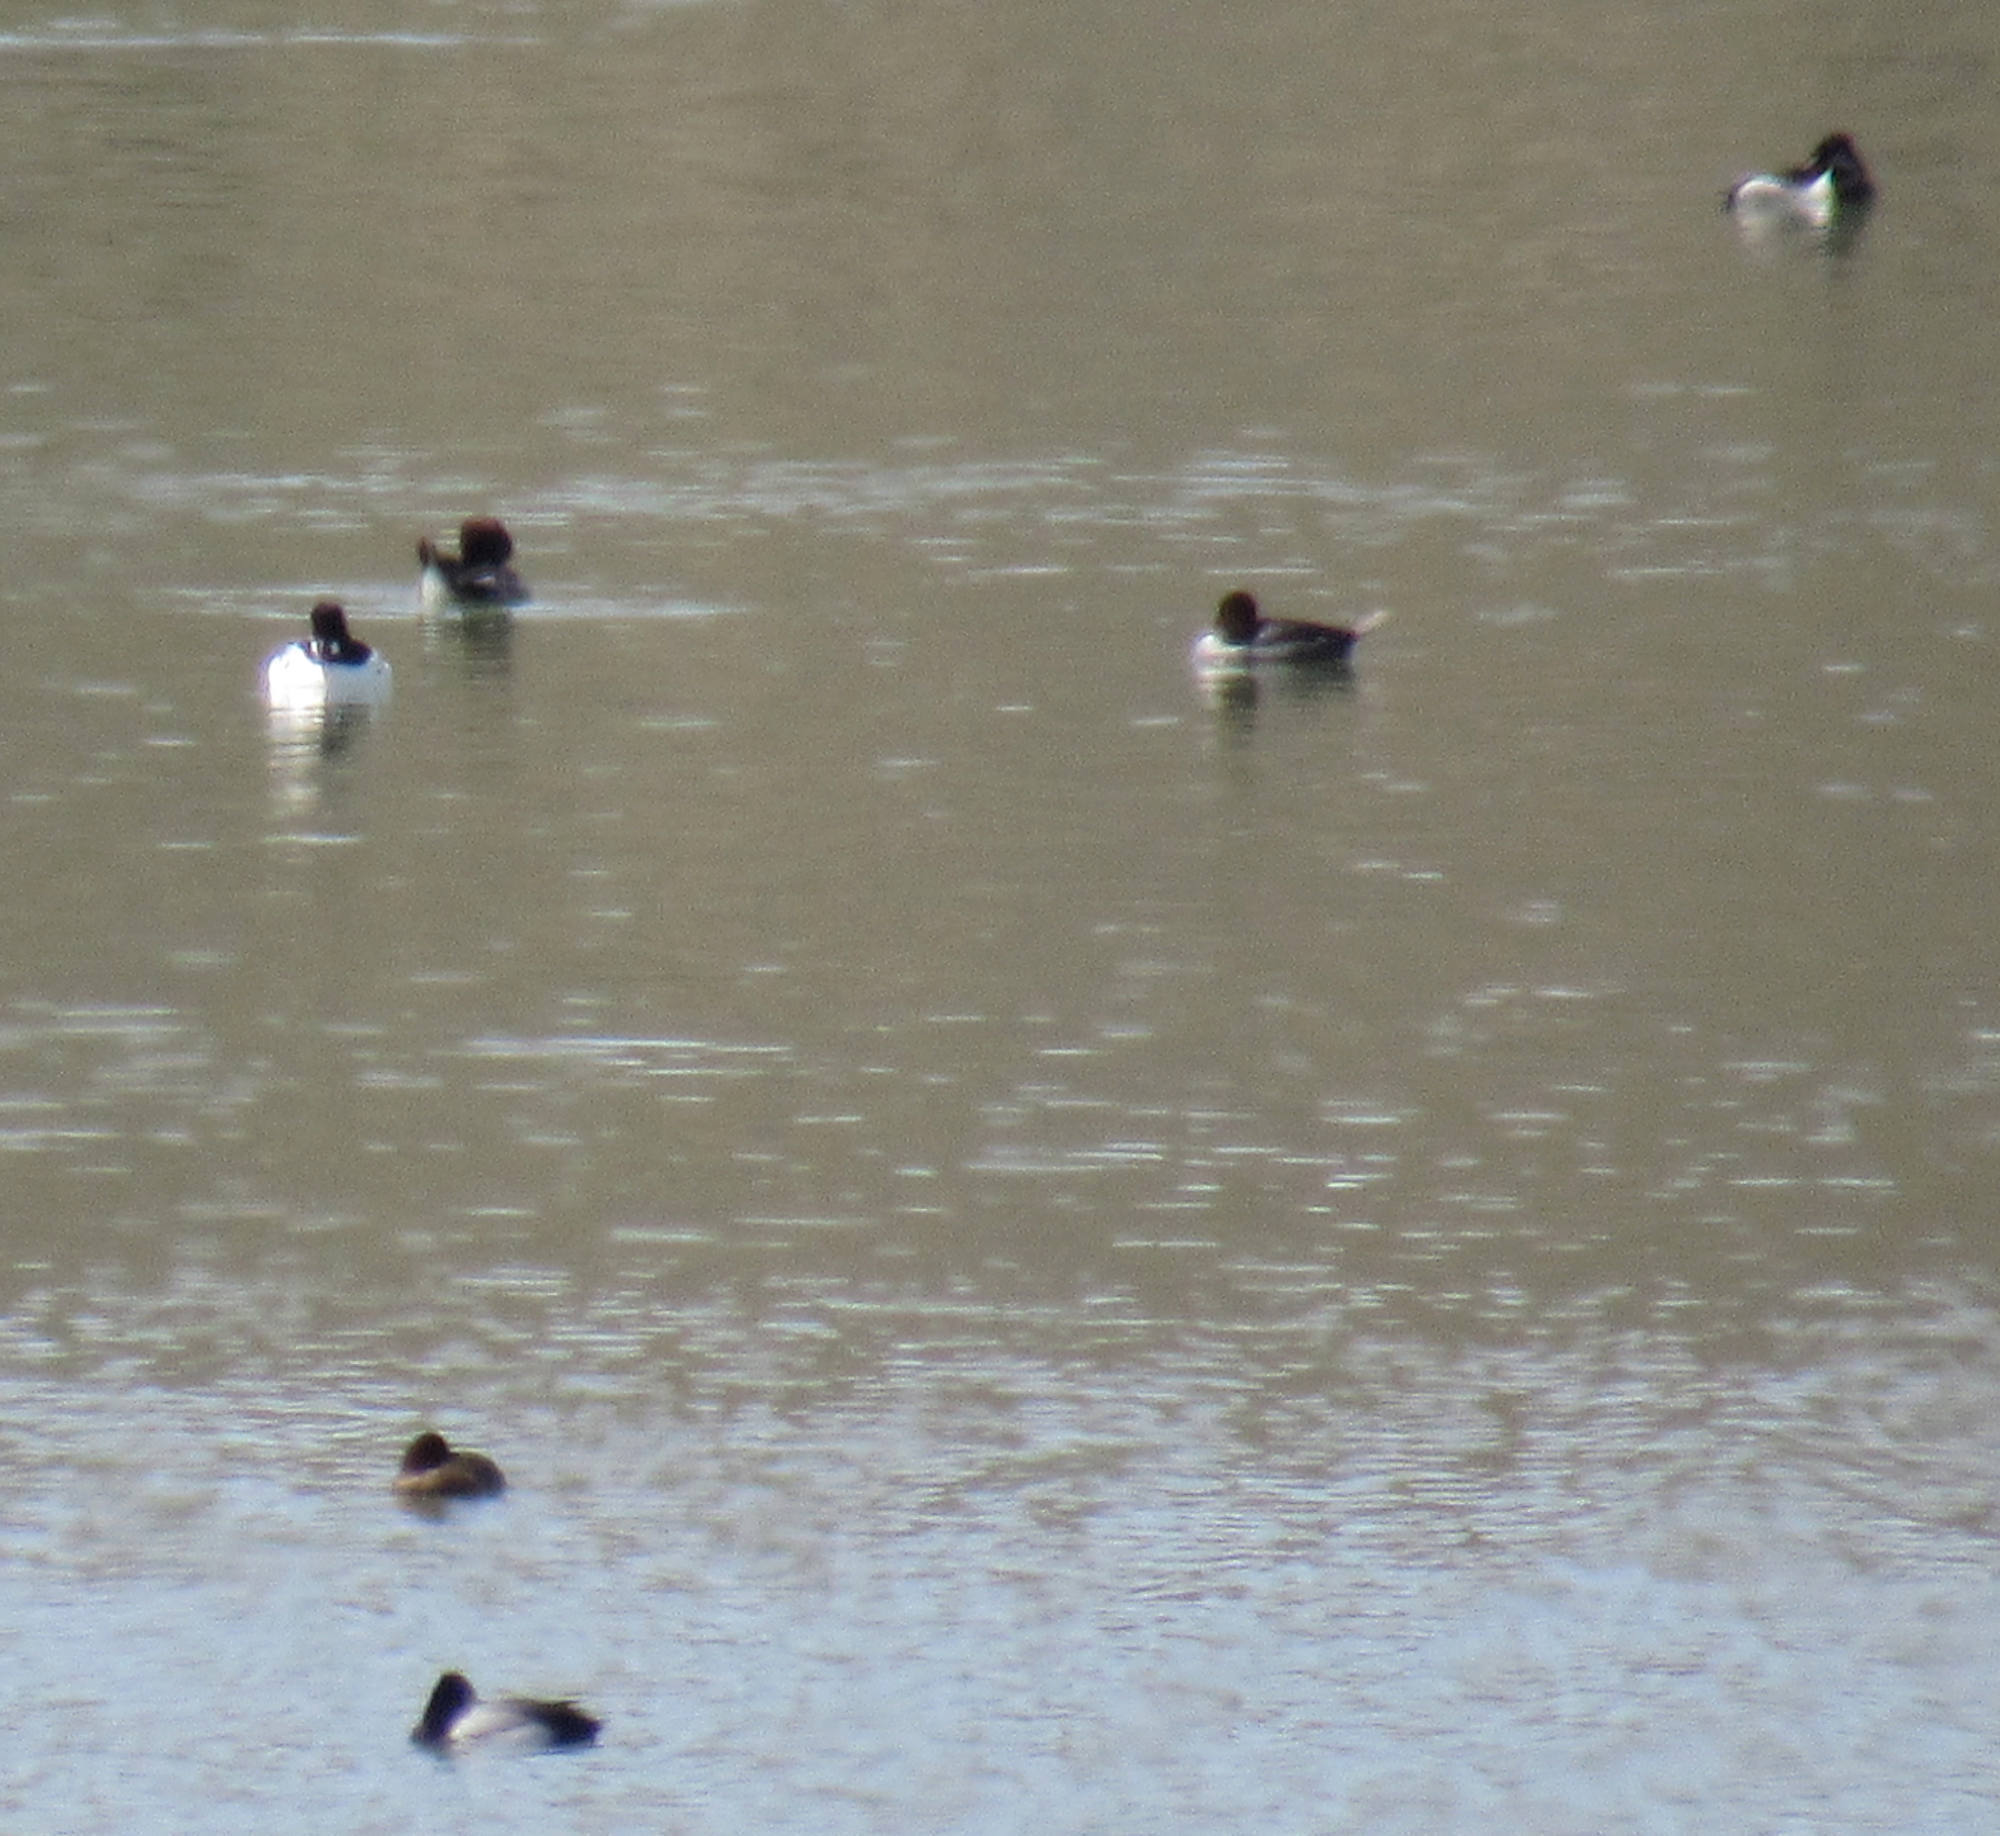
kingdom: Animalia
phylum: Chordata
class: Aves
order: Anseriformes
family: Anatidae
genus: Aythya
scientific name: Aythya collaris
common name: Ring-necked duck
